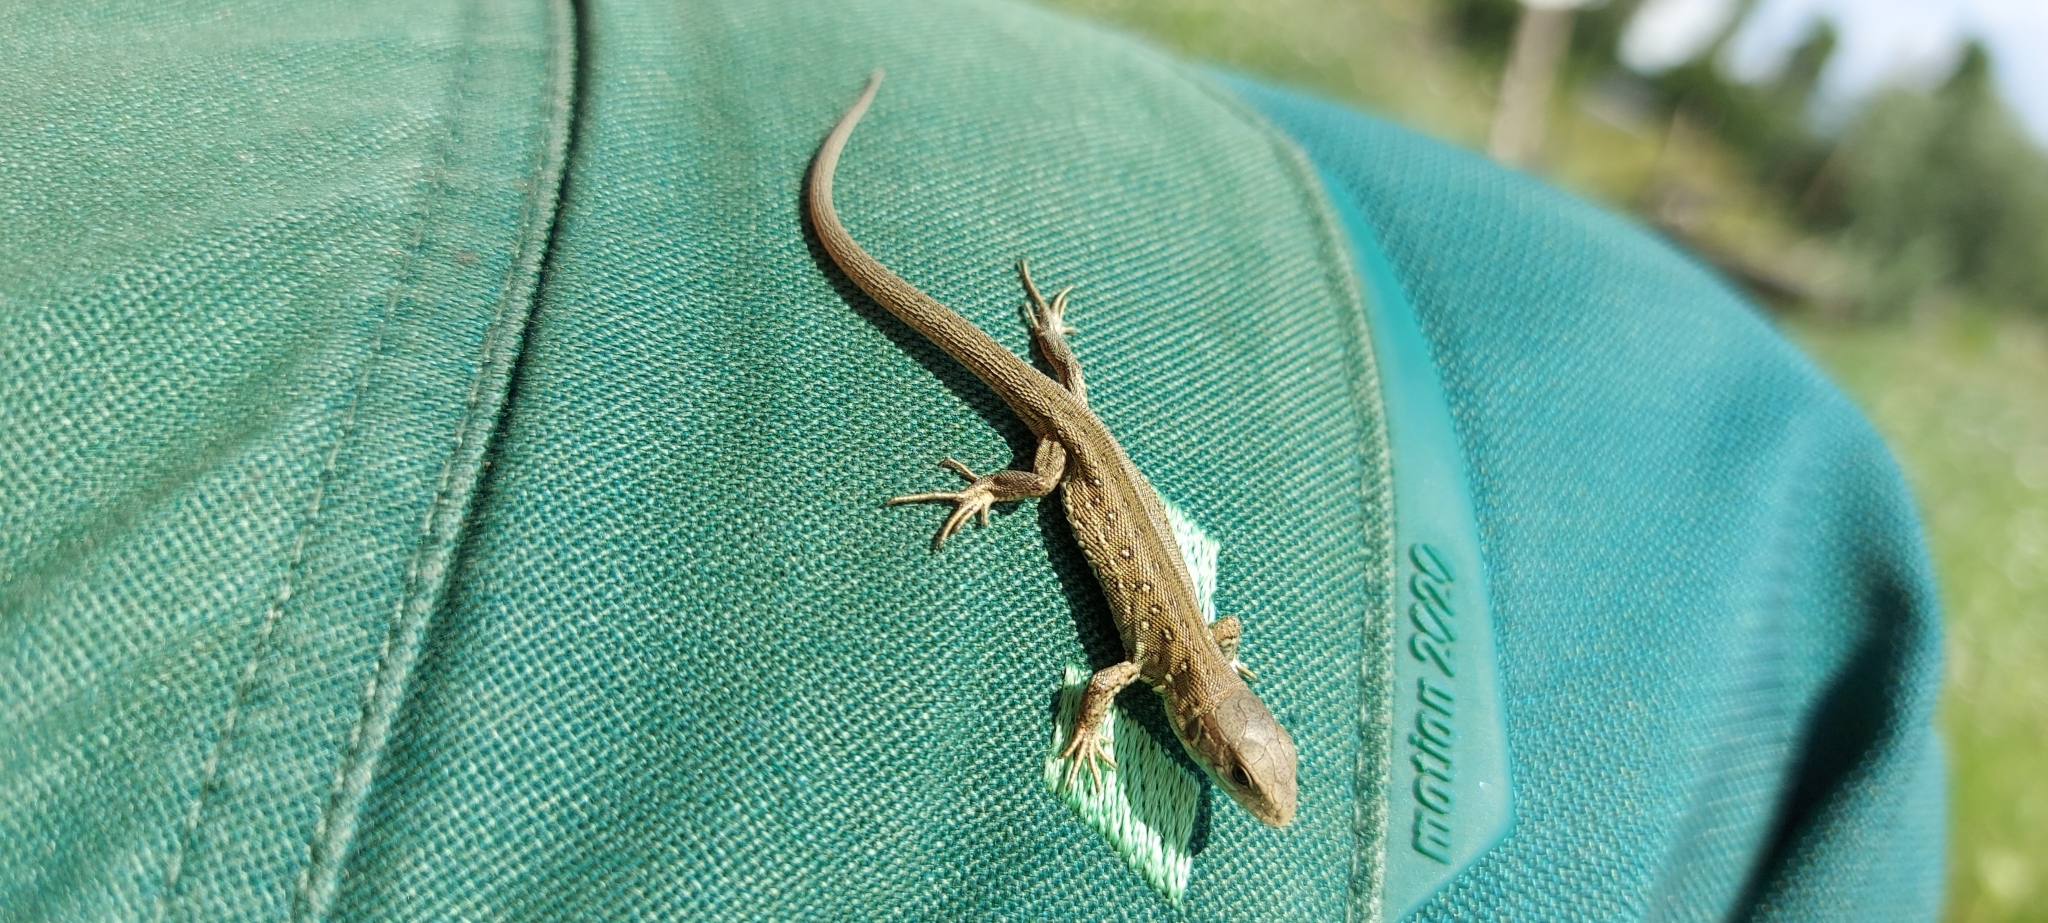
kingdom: Animalia
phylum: Chordata
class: Squamata
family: Lacertidae
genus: Lacerta
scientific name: Lacerta agilis
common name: Sand lizard
